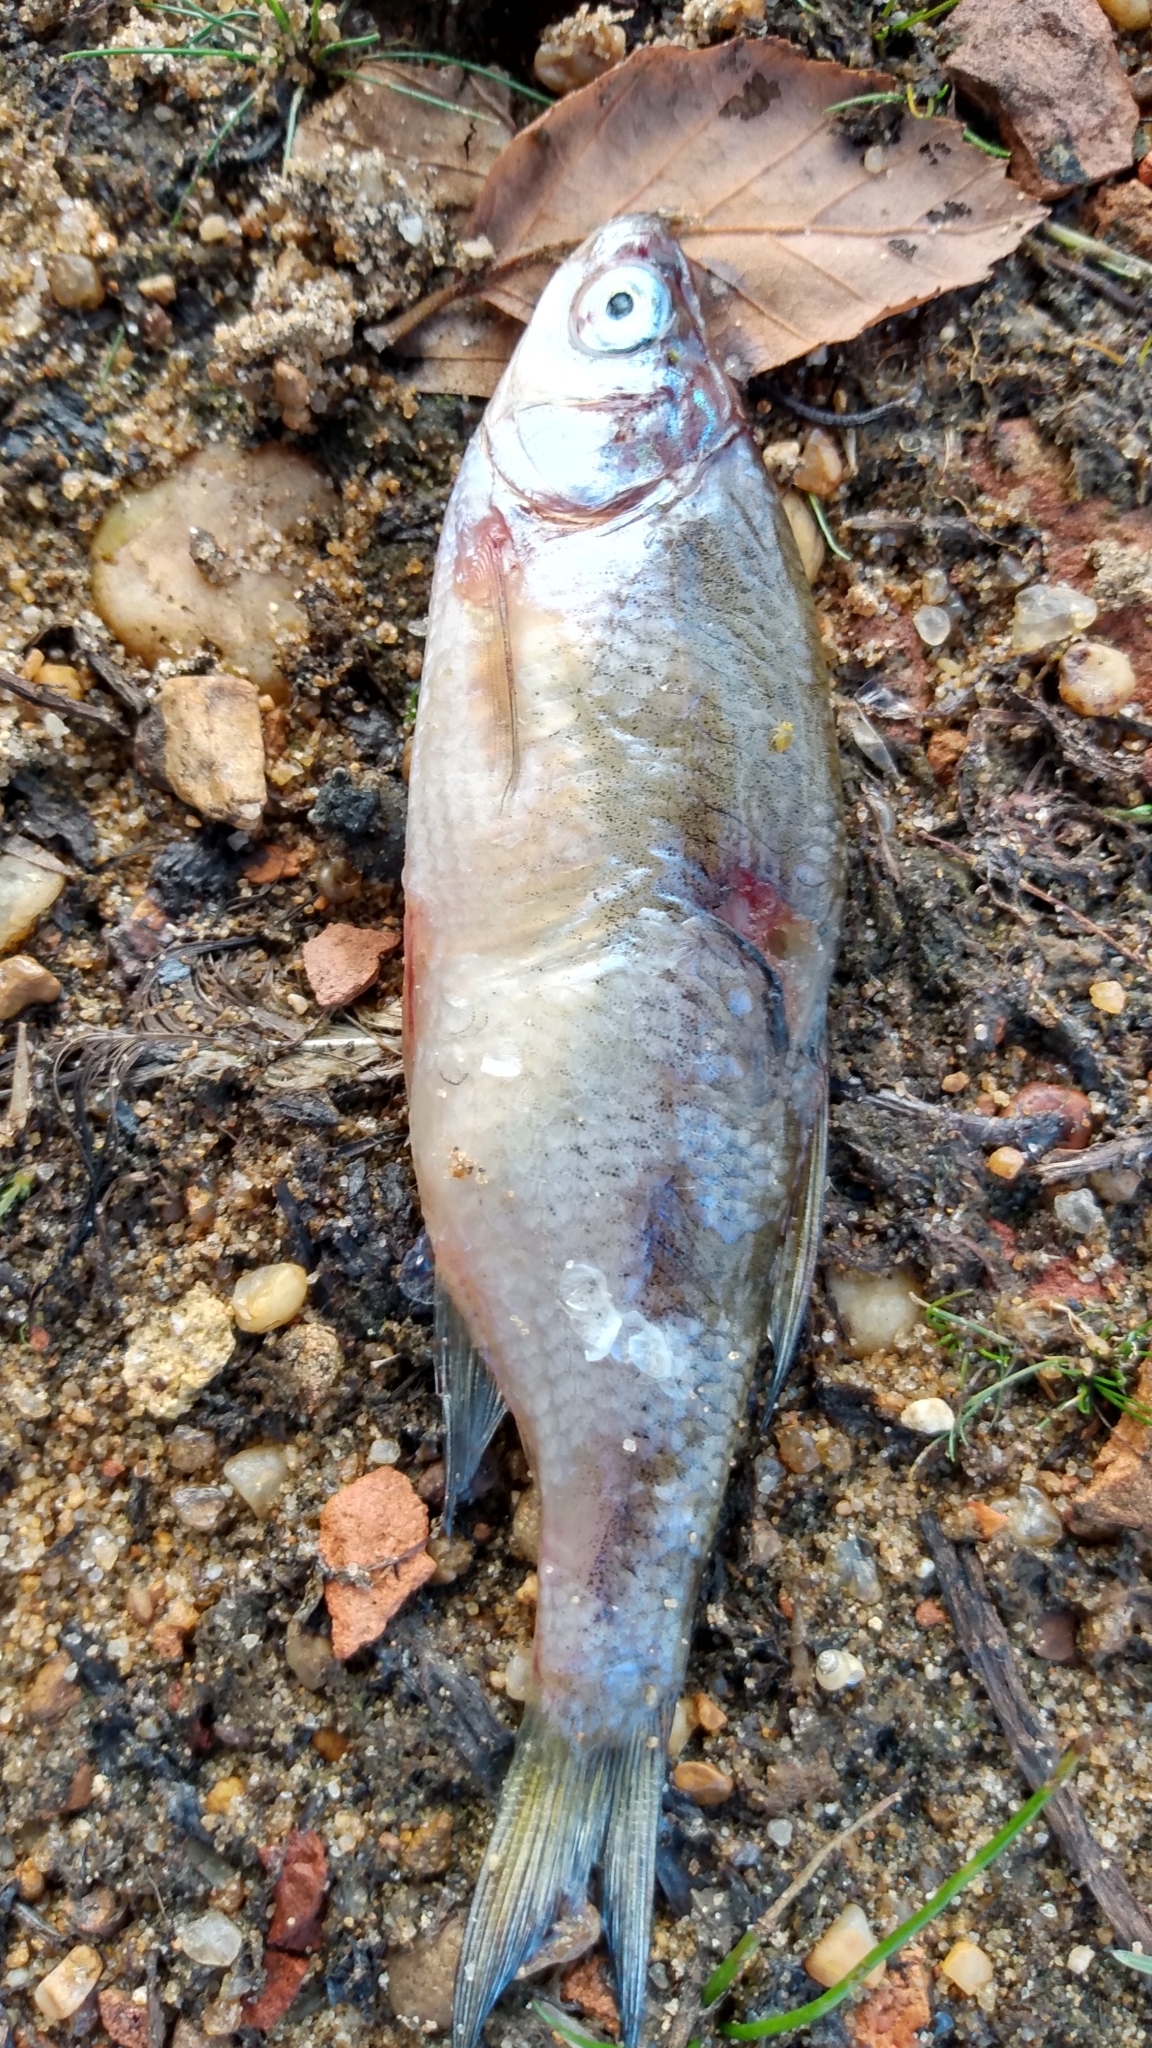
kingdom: Animalia
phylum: Chordata
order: Cypriniformes
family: Cyprinidae
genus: Notemigonus
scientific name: Notemigonus crysoleucas
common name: Golden shiner
